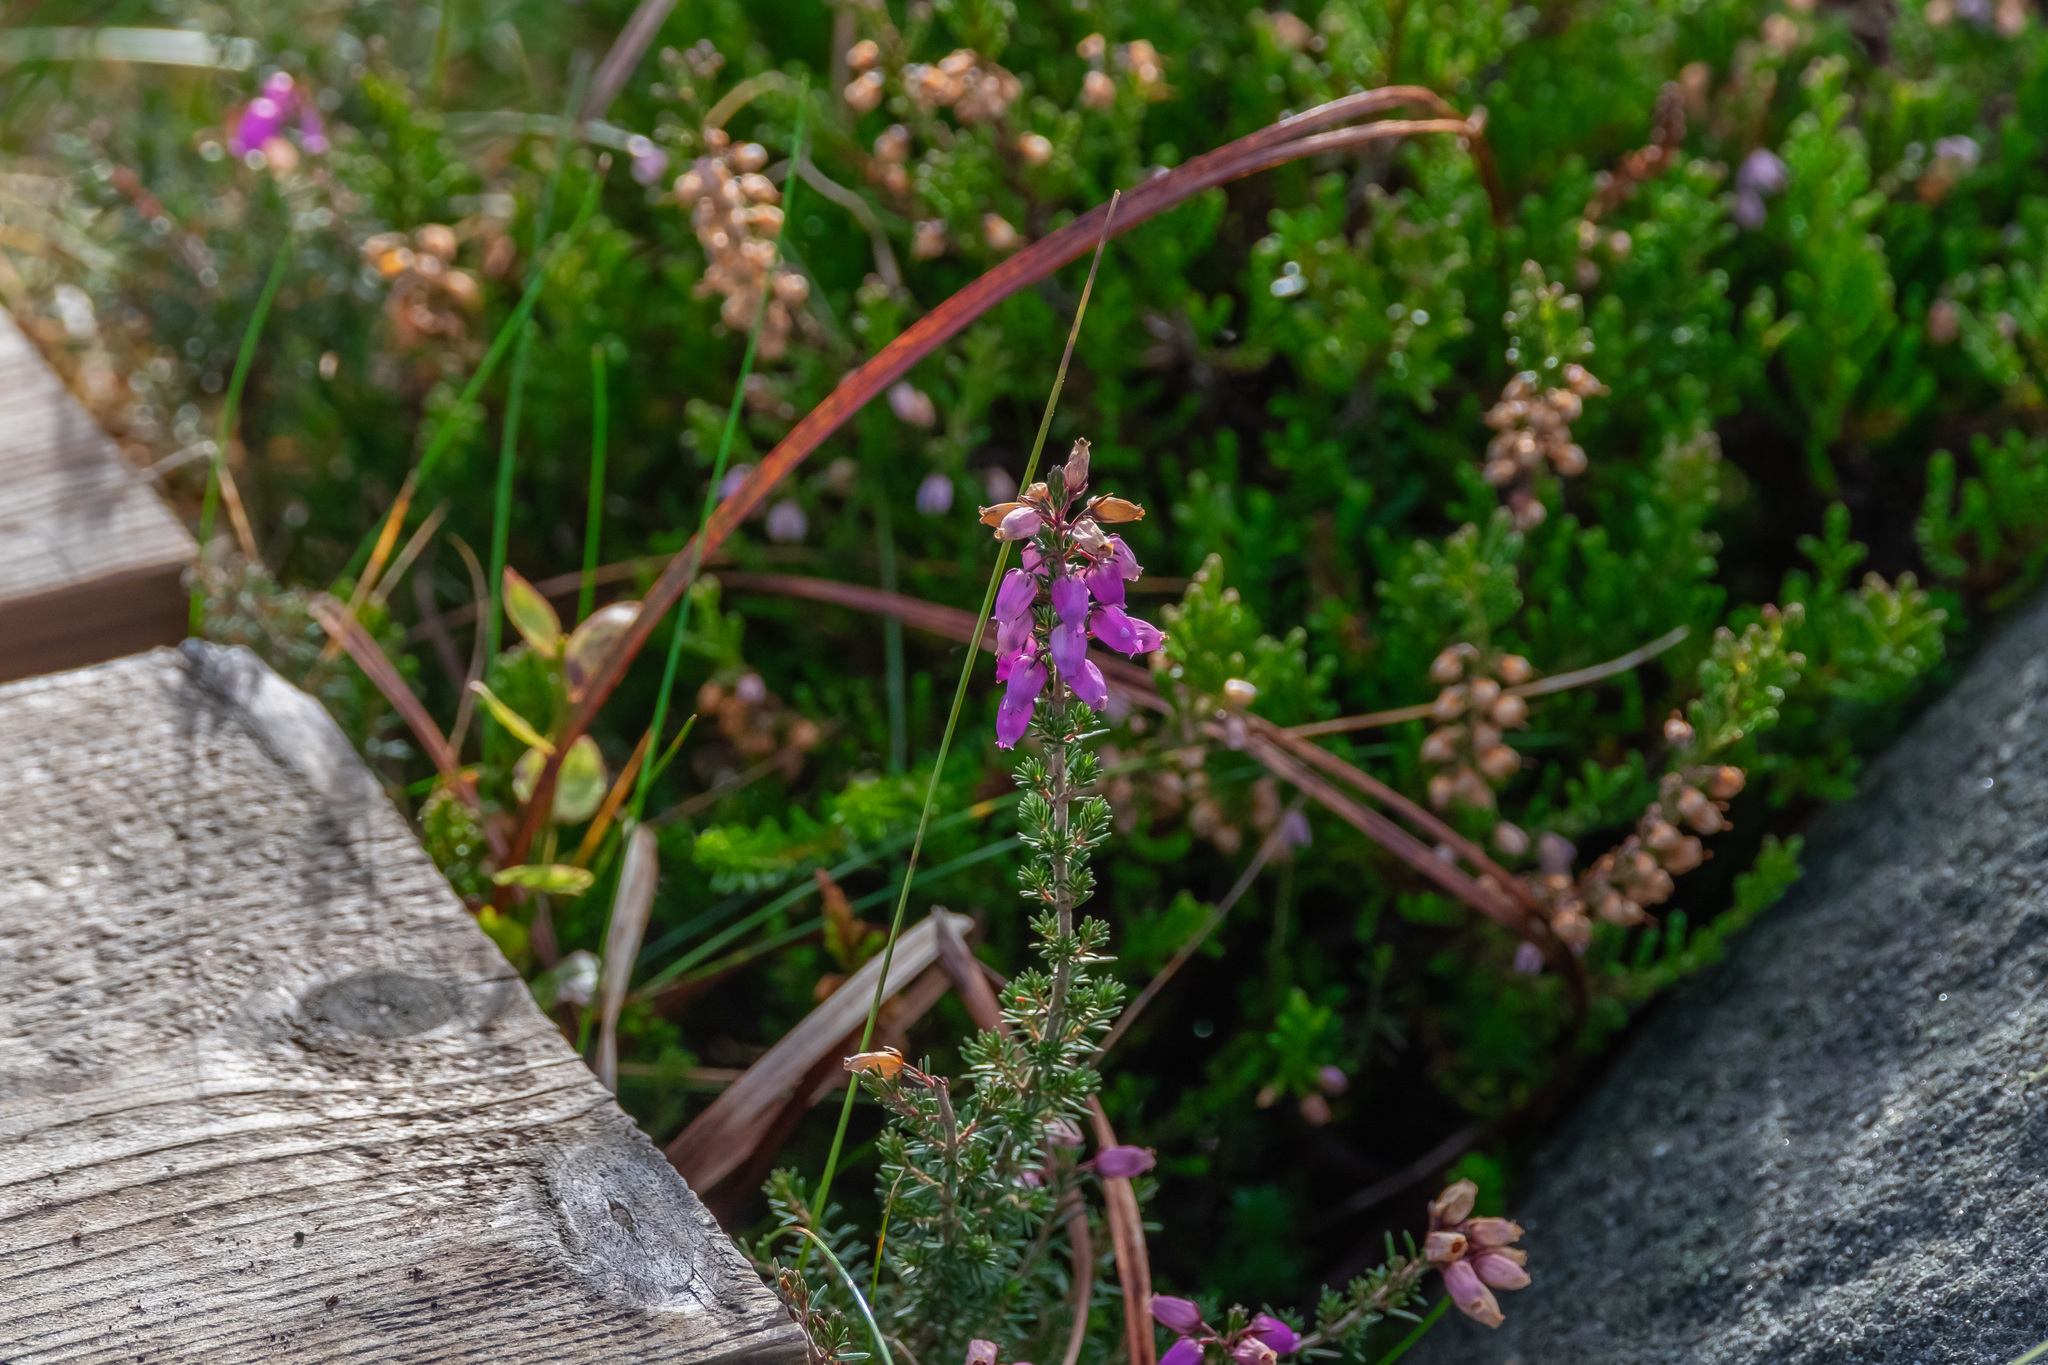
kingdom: Plantae
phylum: Tracheophyta
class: Magnoliopsida
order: Ericales
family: Ericaceae
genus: Erica
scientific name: Erica cinerea
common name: Bell heather
